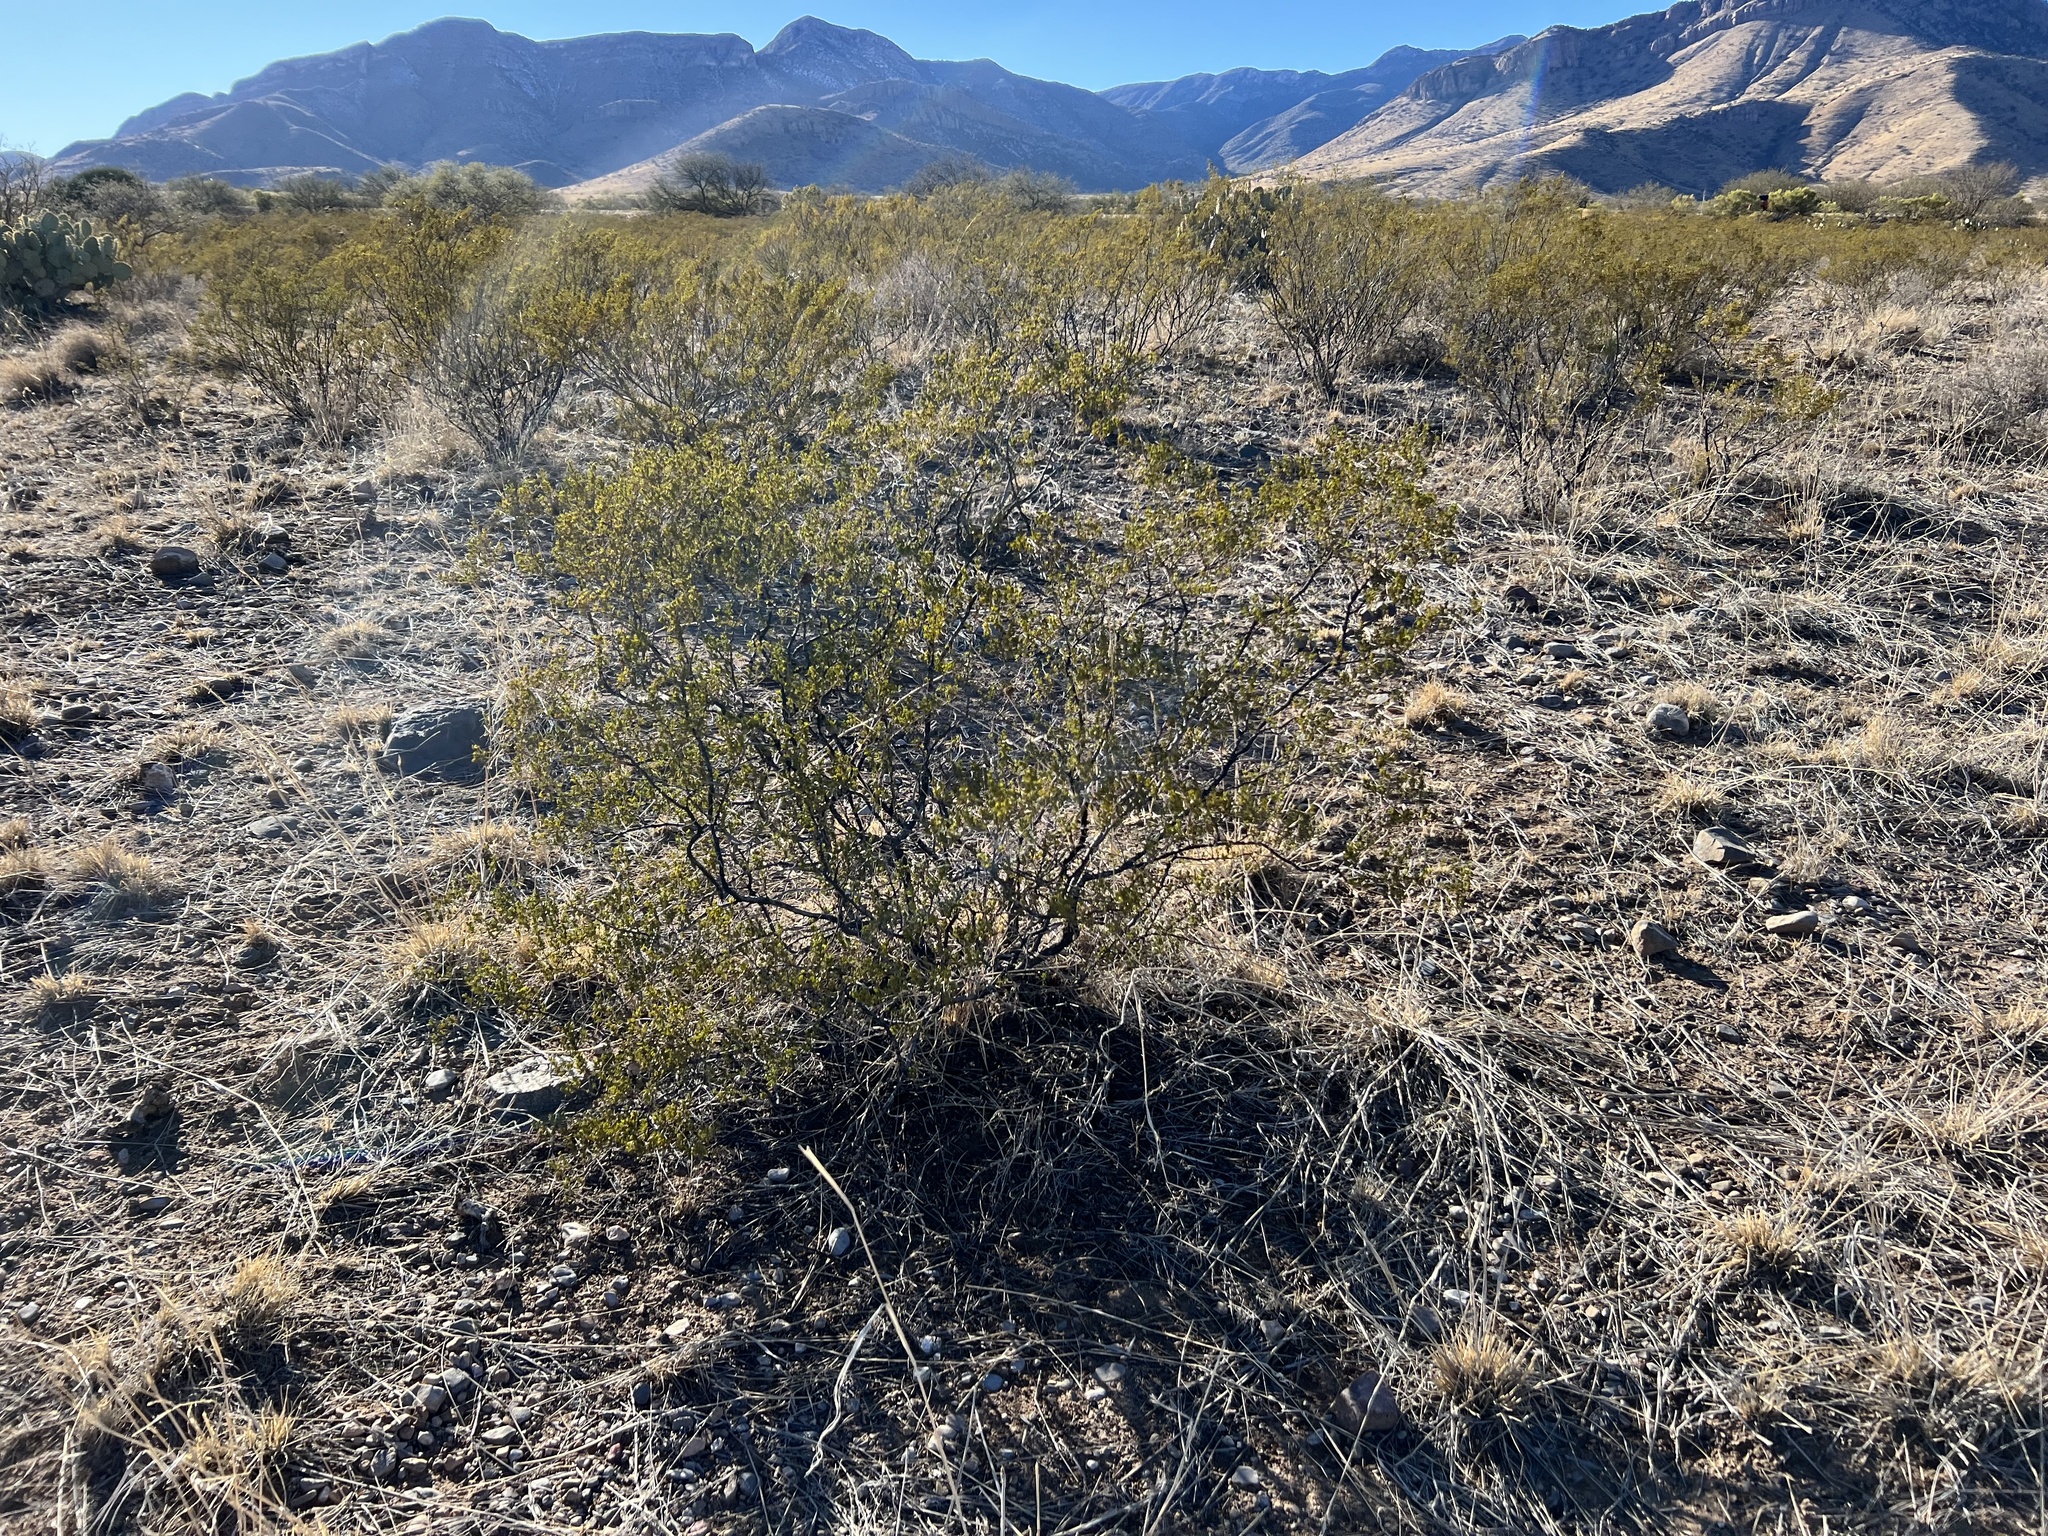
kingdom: Plantae
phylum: Tracheophyta
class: Magnoliopsida
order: Zygophyllales
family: Zygophyllaceae
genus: Larrea
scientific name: Larrea tridentata
